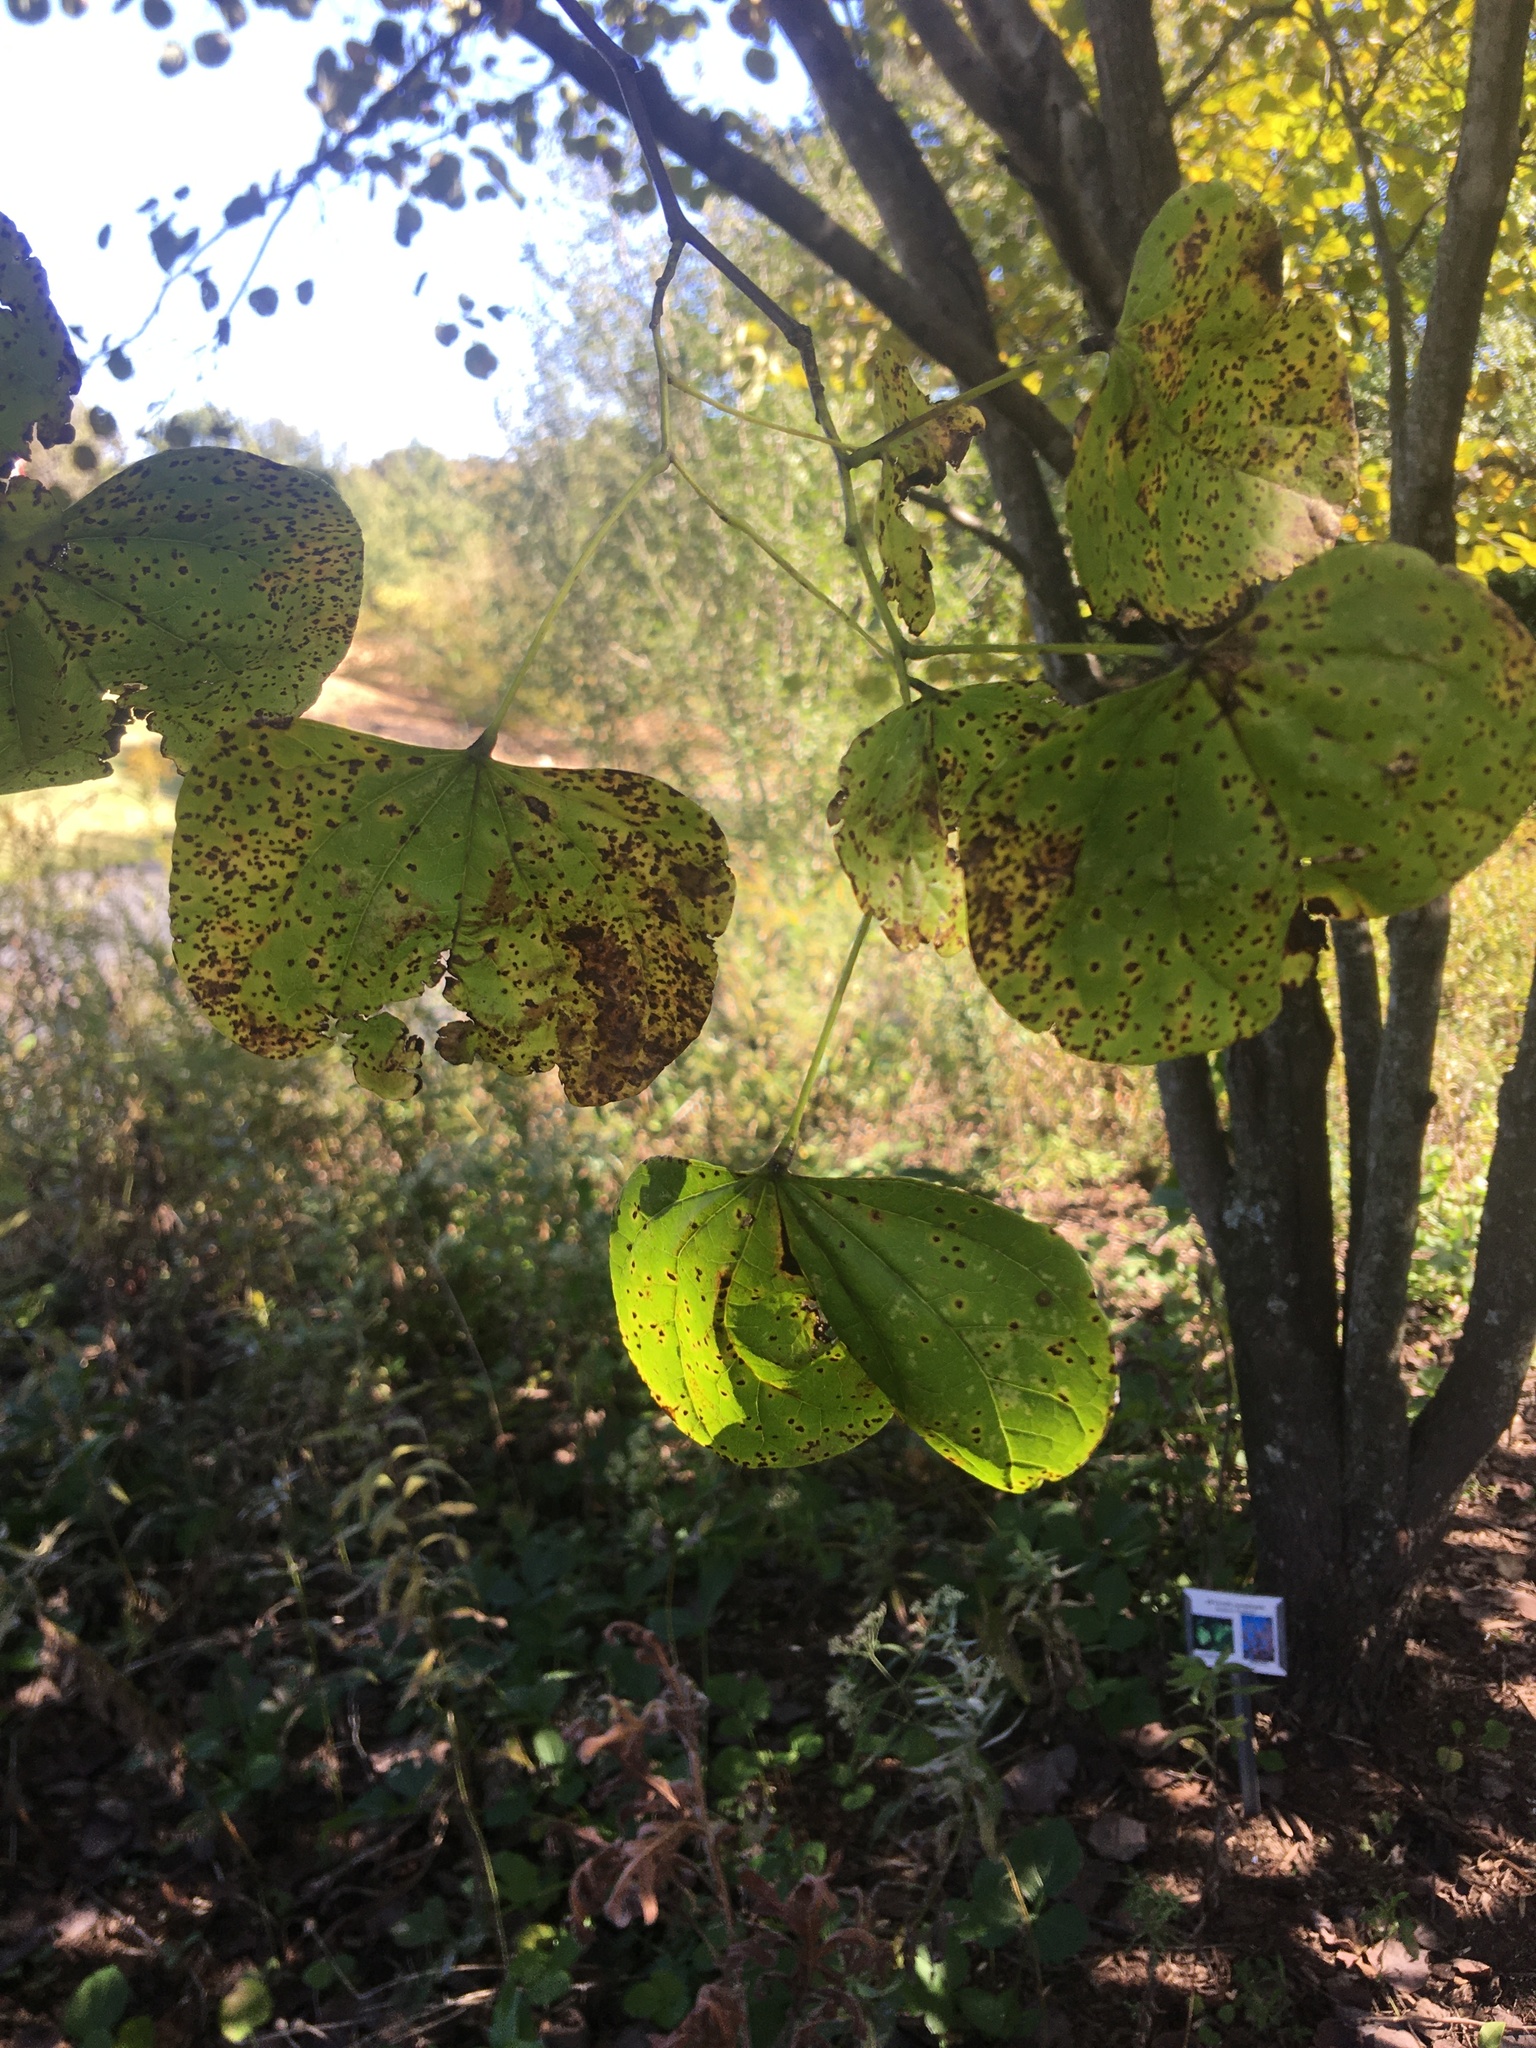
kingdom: Plantae
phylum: Tracheophyta
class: Magnoliopsida
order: Fabales
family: Fabaceae
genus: Cercis
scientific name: Cercis canadensis
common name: Eastern redbud
